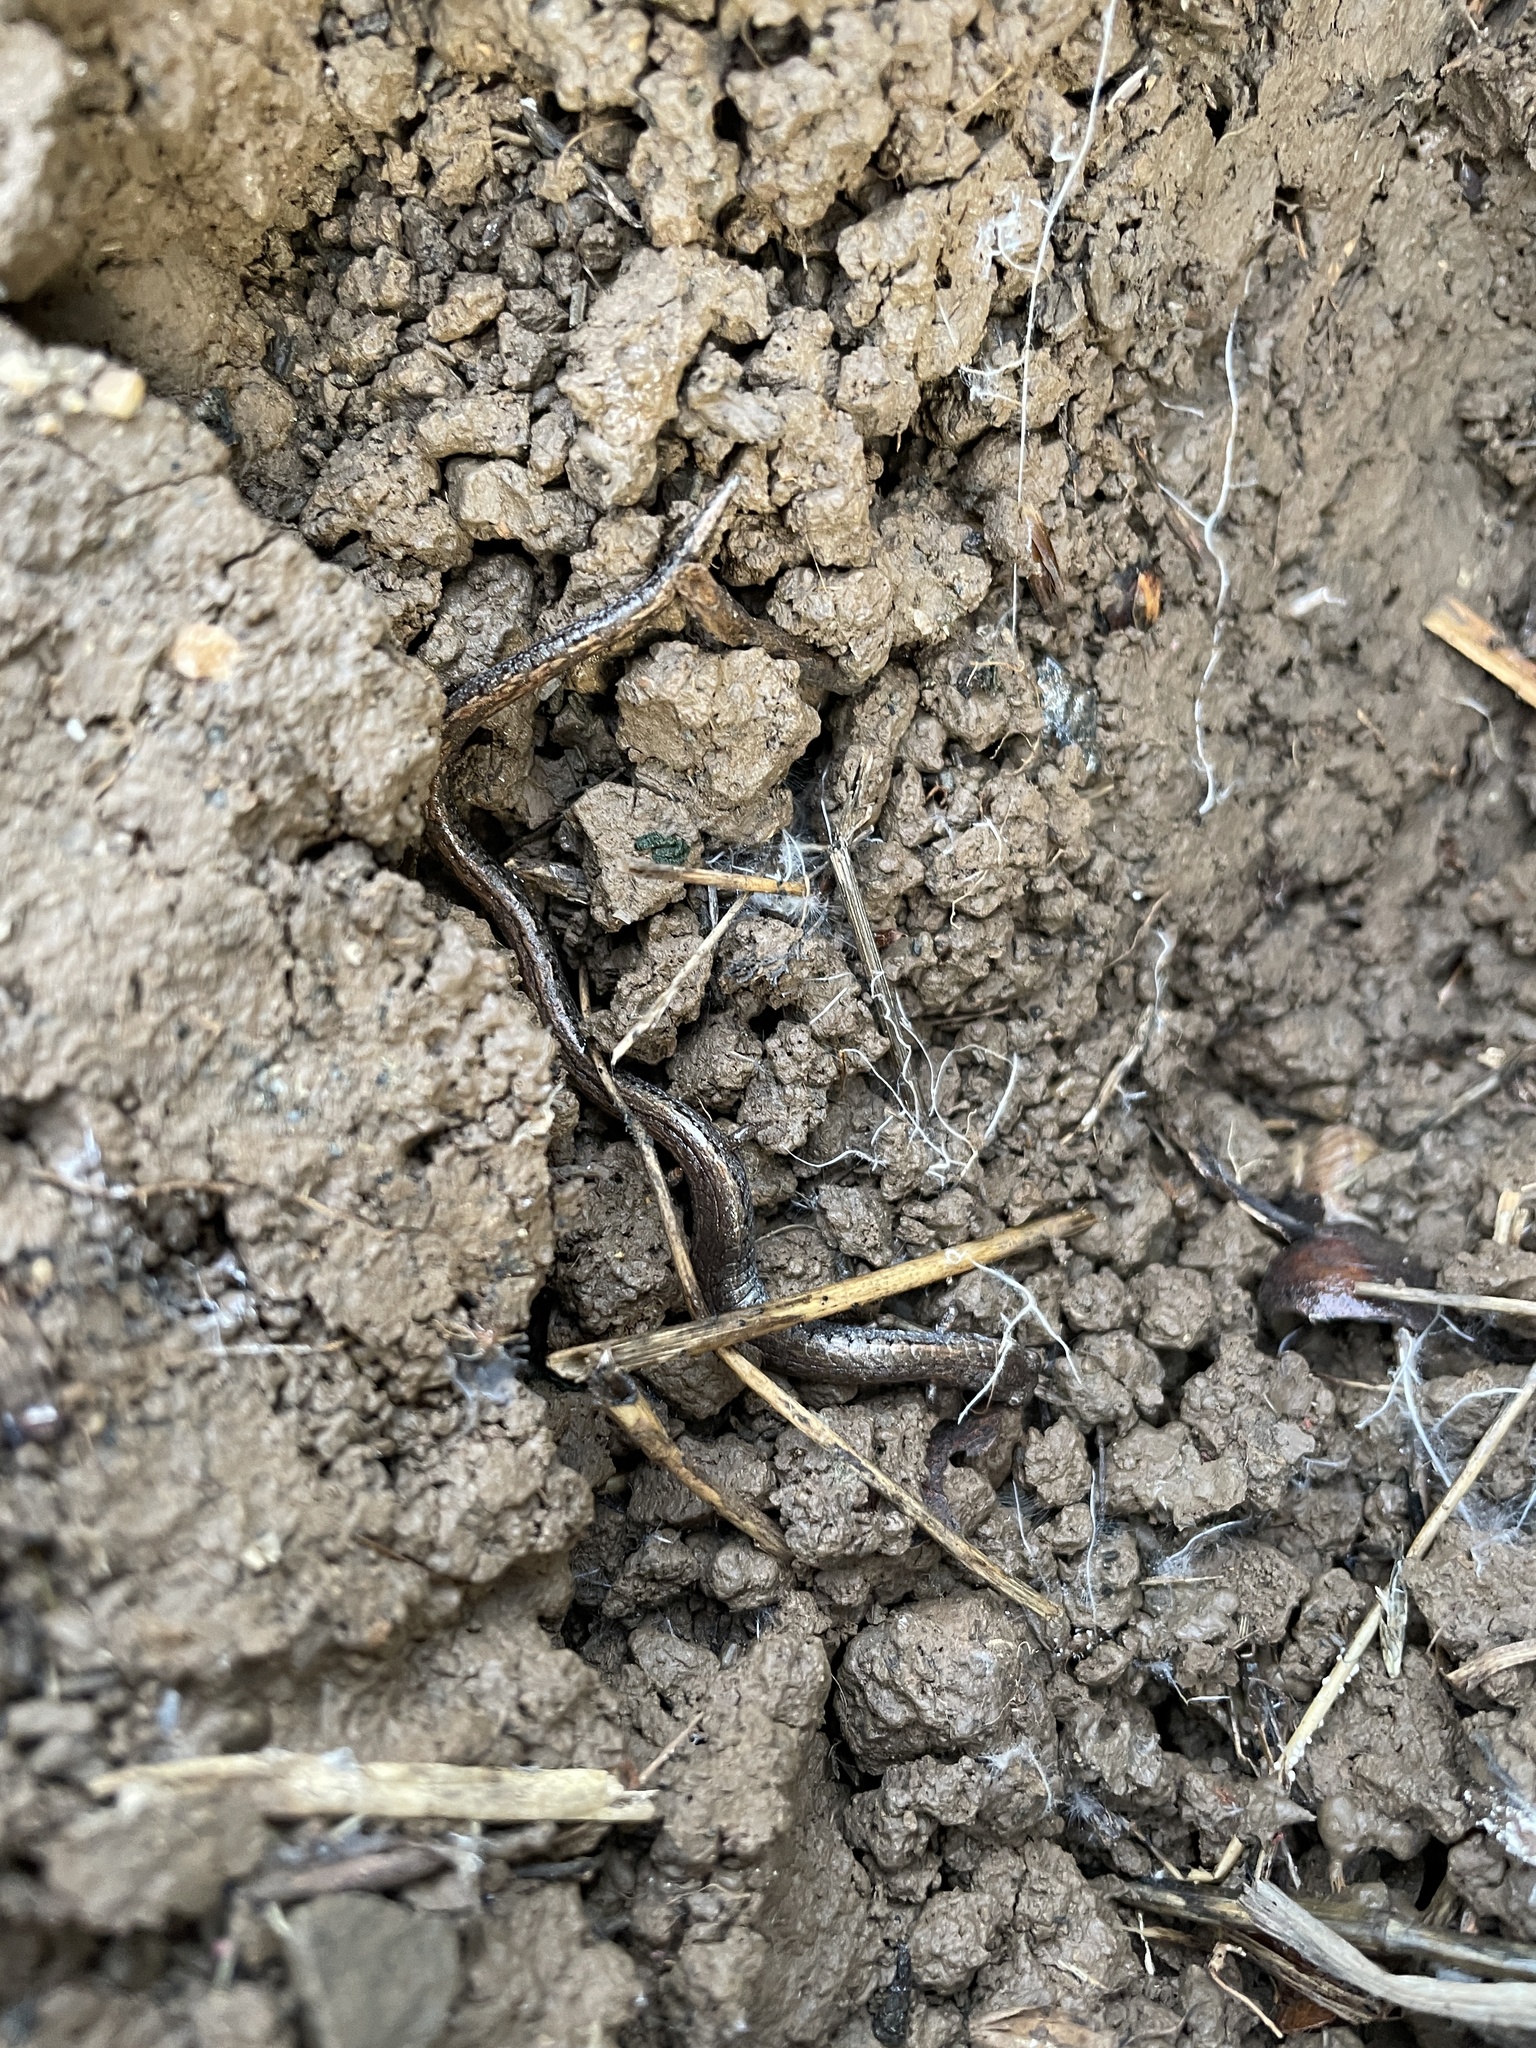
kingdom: Animalia
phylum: Chordata
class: Amphibia
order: Caudata
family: Plethodontidae
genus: Batrachoseps
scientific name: Batrachoseps attenuatus
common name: California slender salamander
